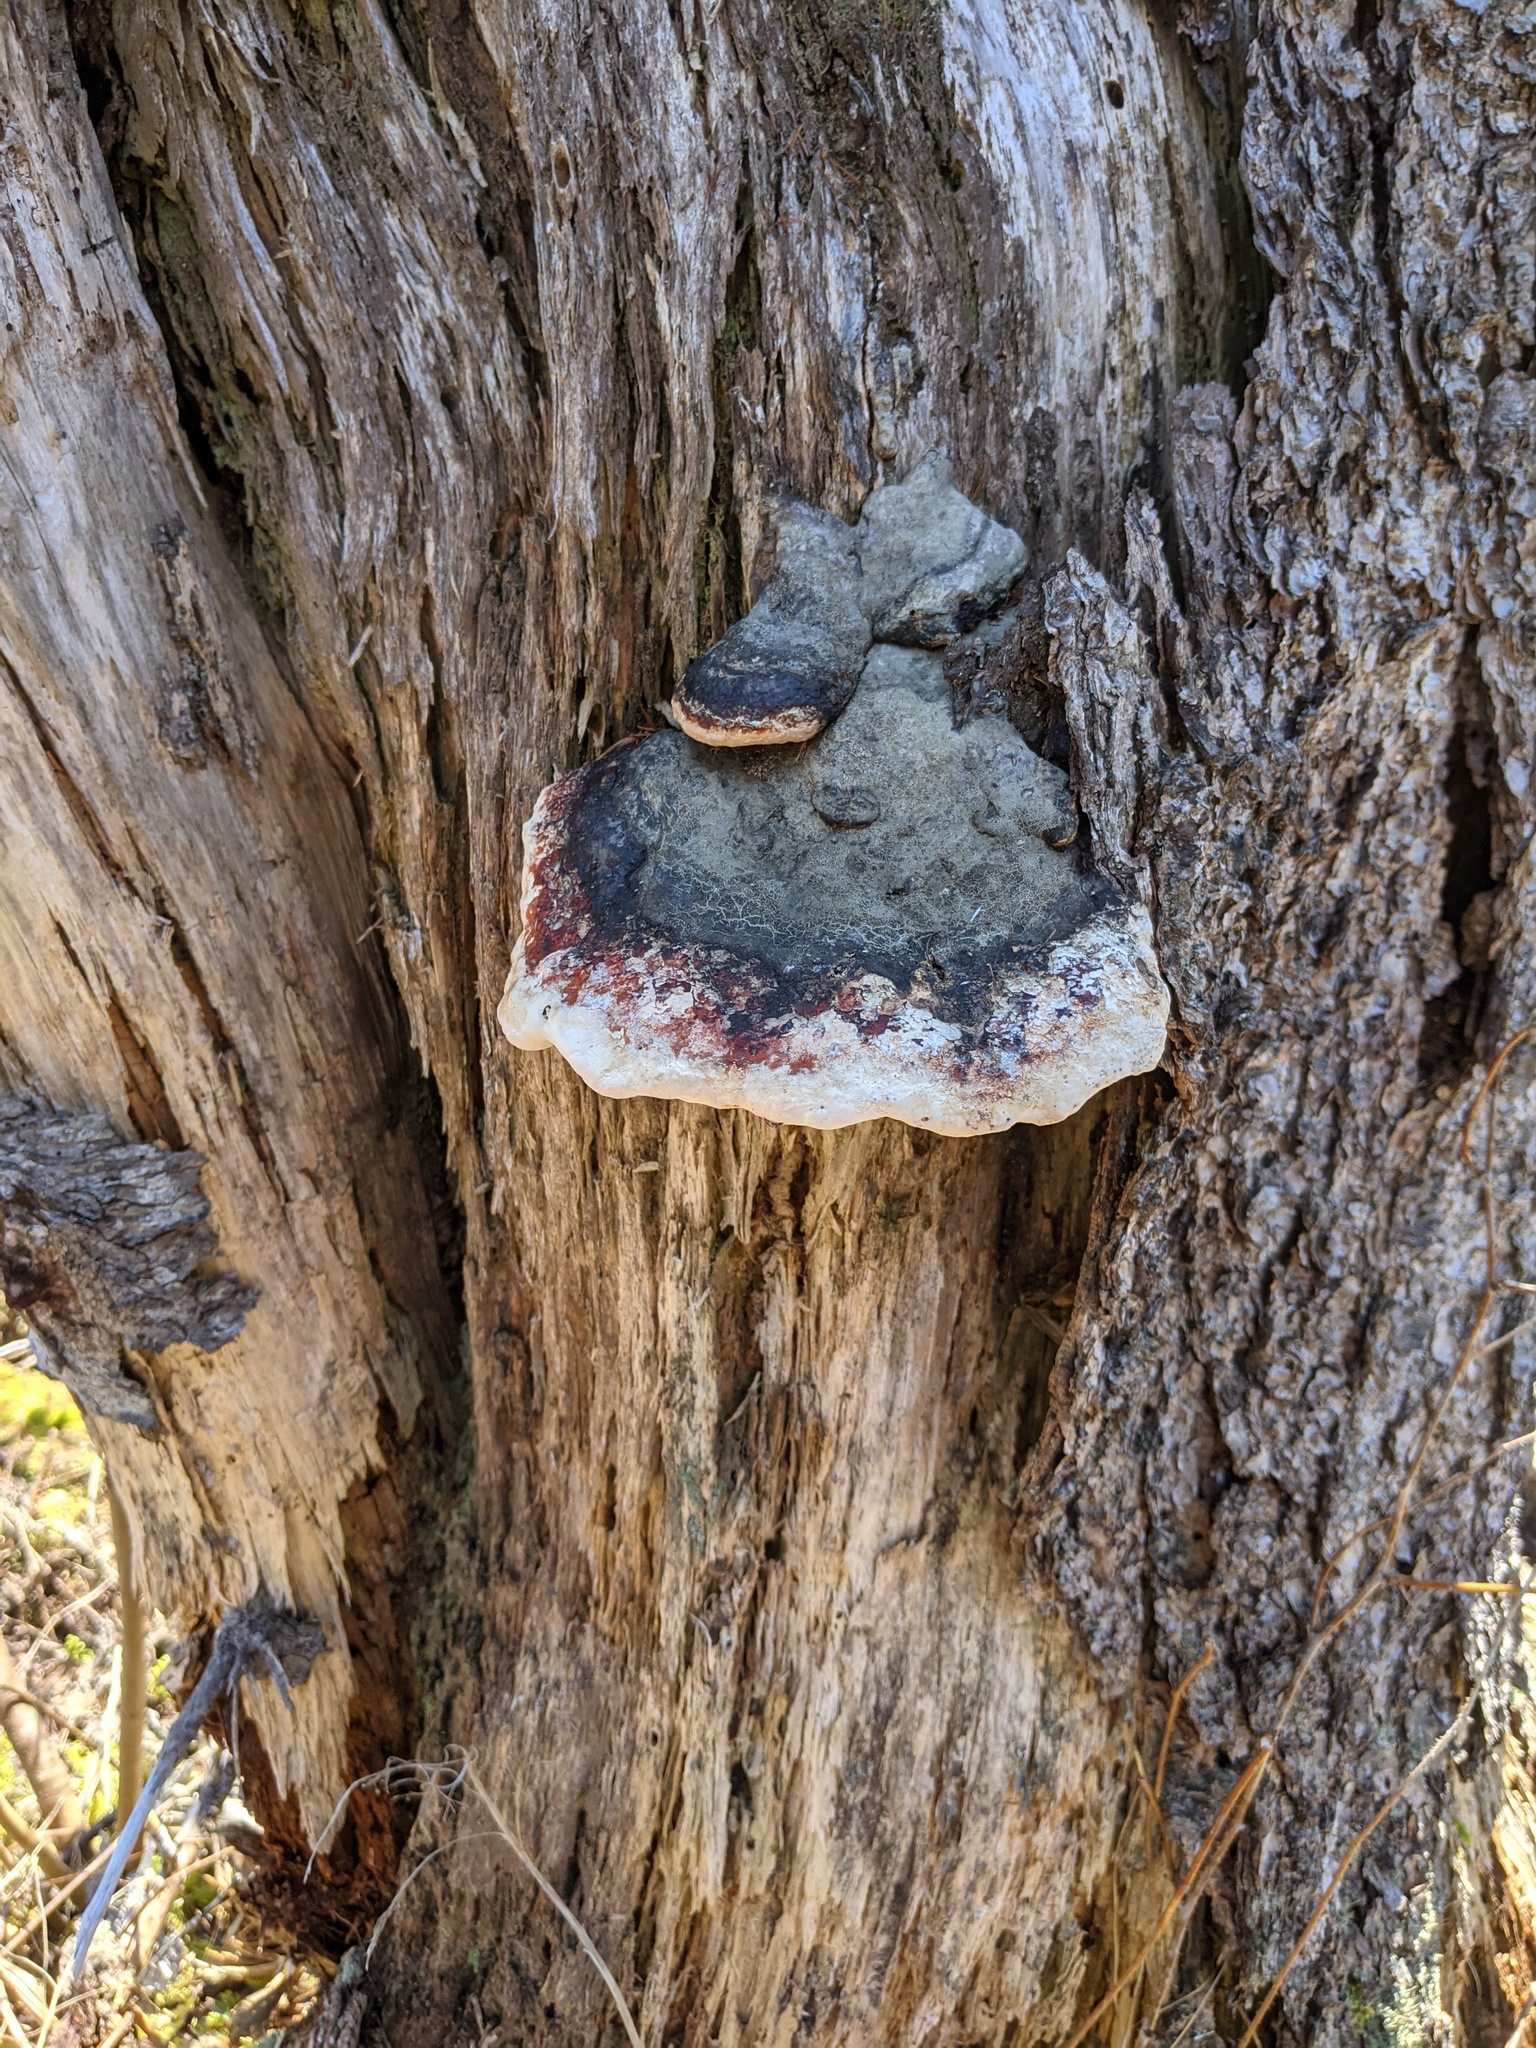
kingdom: Fungi
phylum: Basidiomycota
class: Agaricomycetes
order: Polyporales
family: Fomitopsidaceae
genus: Fomitopsis
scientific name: Fomitopsis mounceae
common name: Northern red belt
